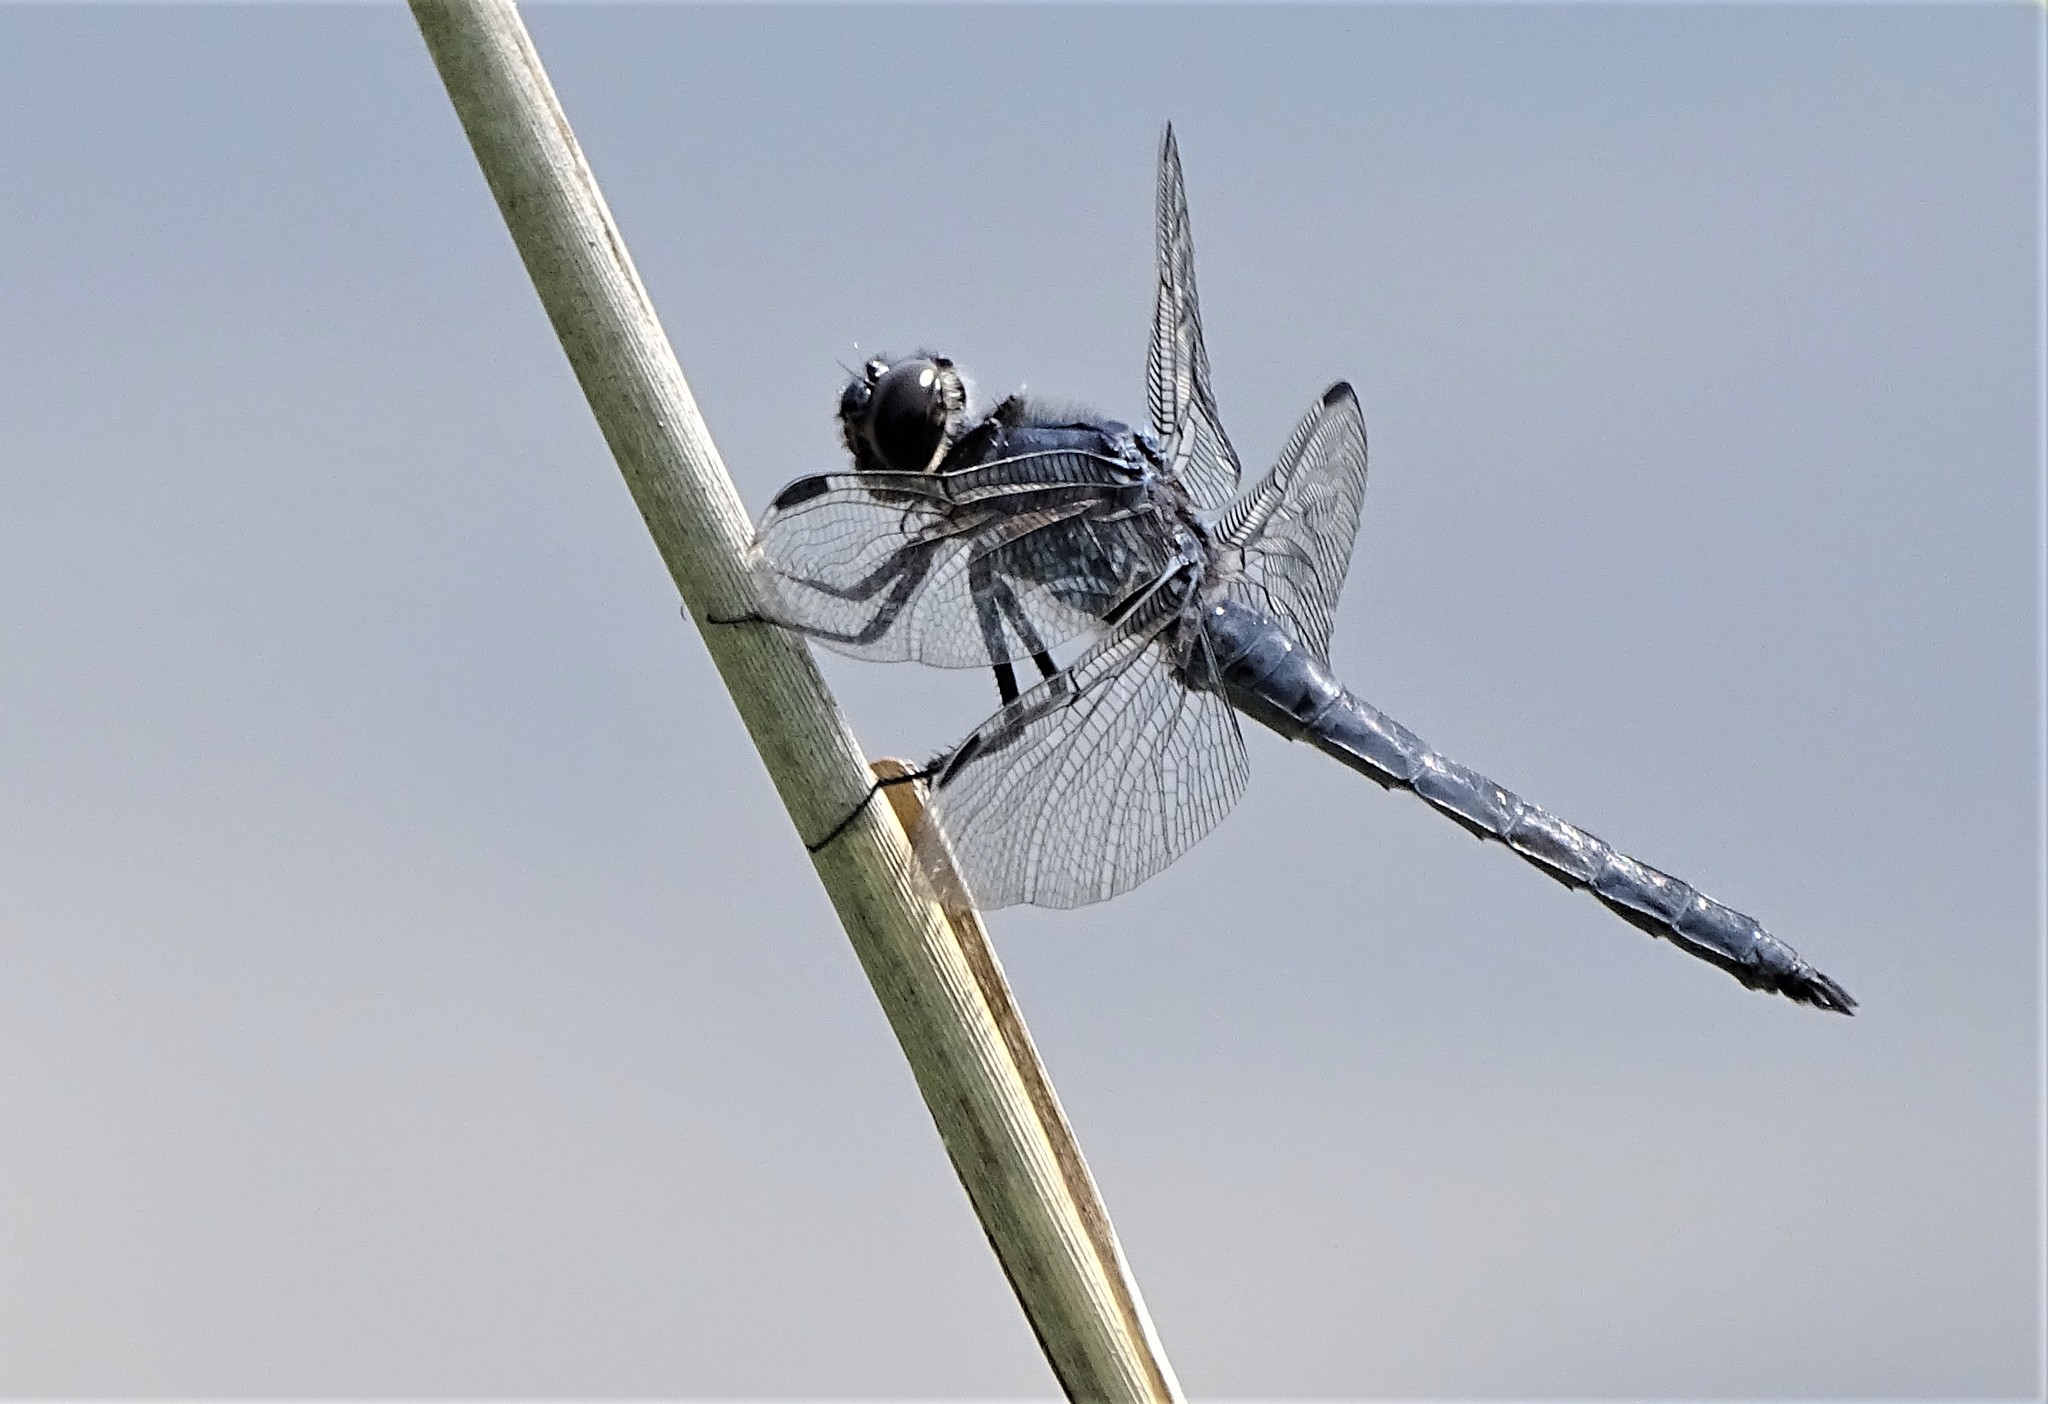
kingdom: Animalia
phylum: Arthropoda
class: Insecta
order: Odonata
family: Libellulidae
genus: Libellula
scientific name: Libellula incesta
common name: Slaty skimmer
